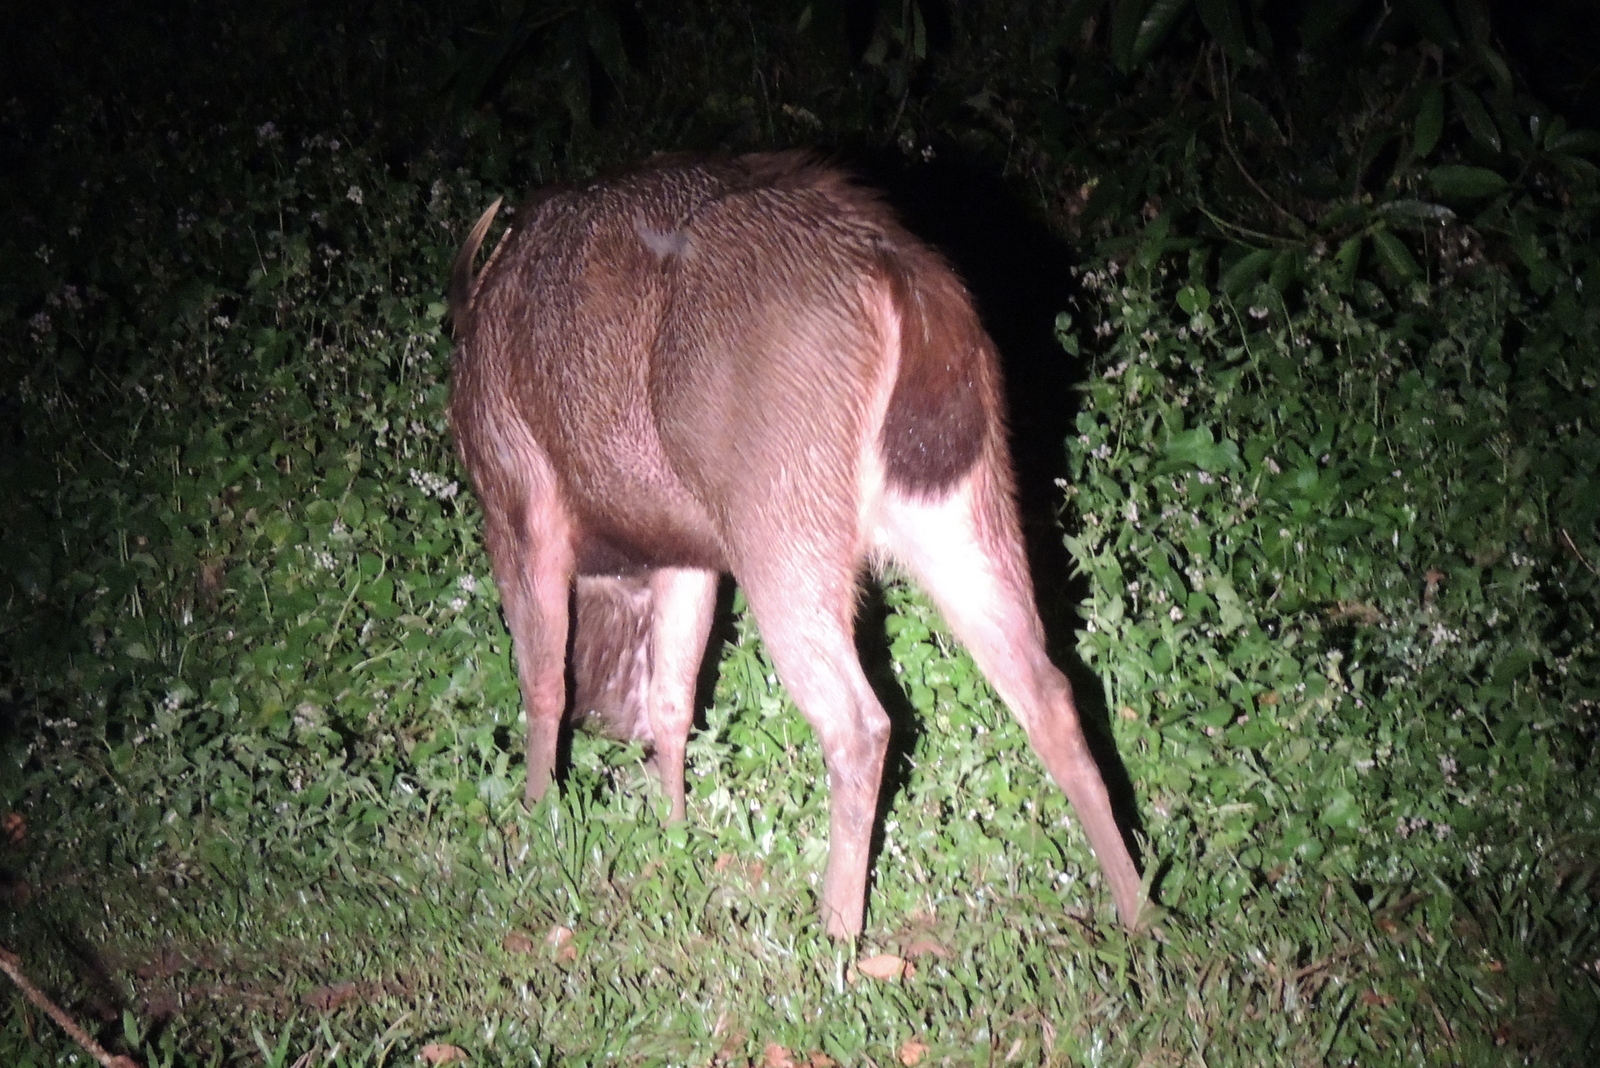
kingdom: Animalia
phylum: Chordata
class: Mammalia
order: Artiodactyla
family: Cervidae
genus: Rusa
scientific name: Rusa unicolor
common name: Sambar
